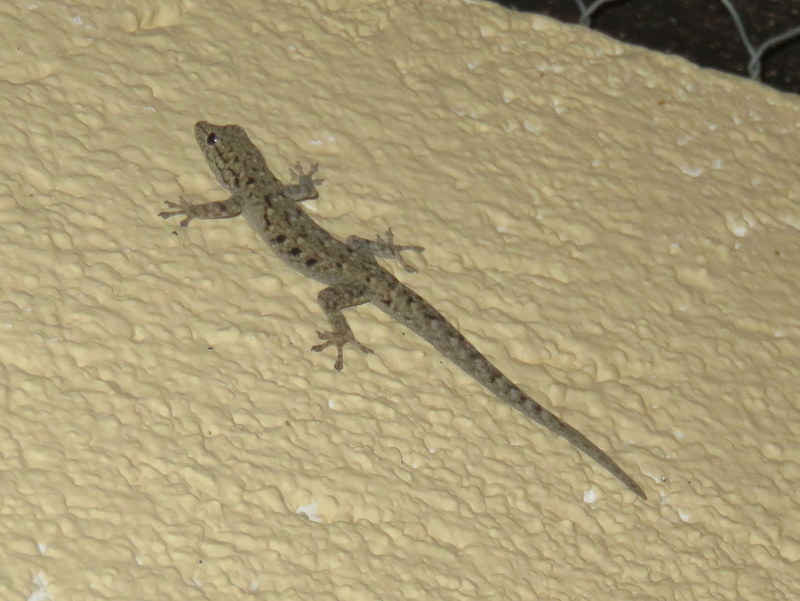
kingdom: Animalia
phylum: Chordata
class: Squamata
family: Gekkonidae
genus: Lygodactylus
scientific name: Lygodactylus stevensoni
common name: Stevenson's dwarf gecko
